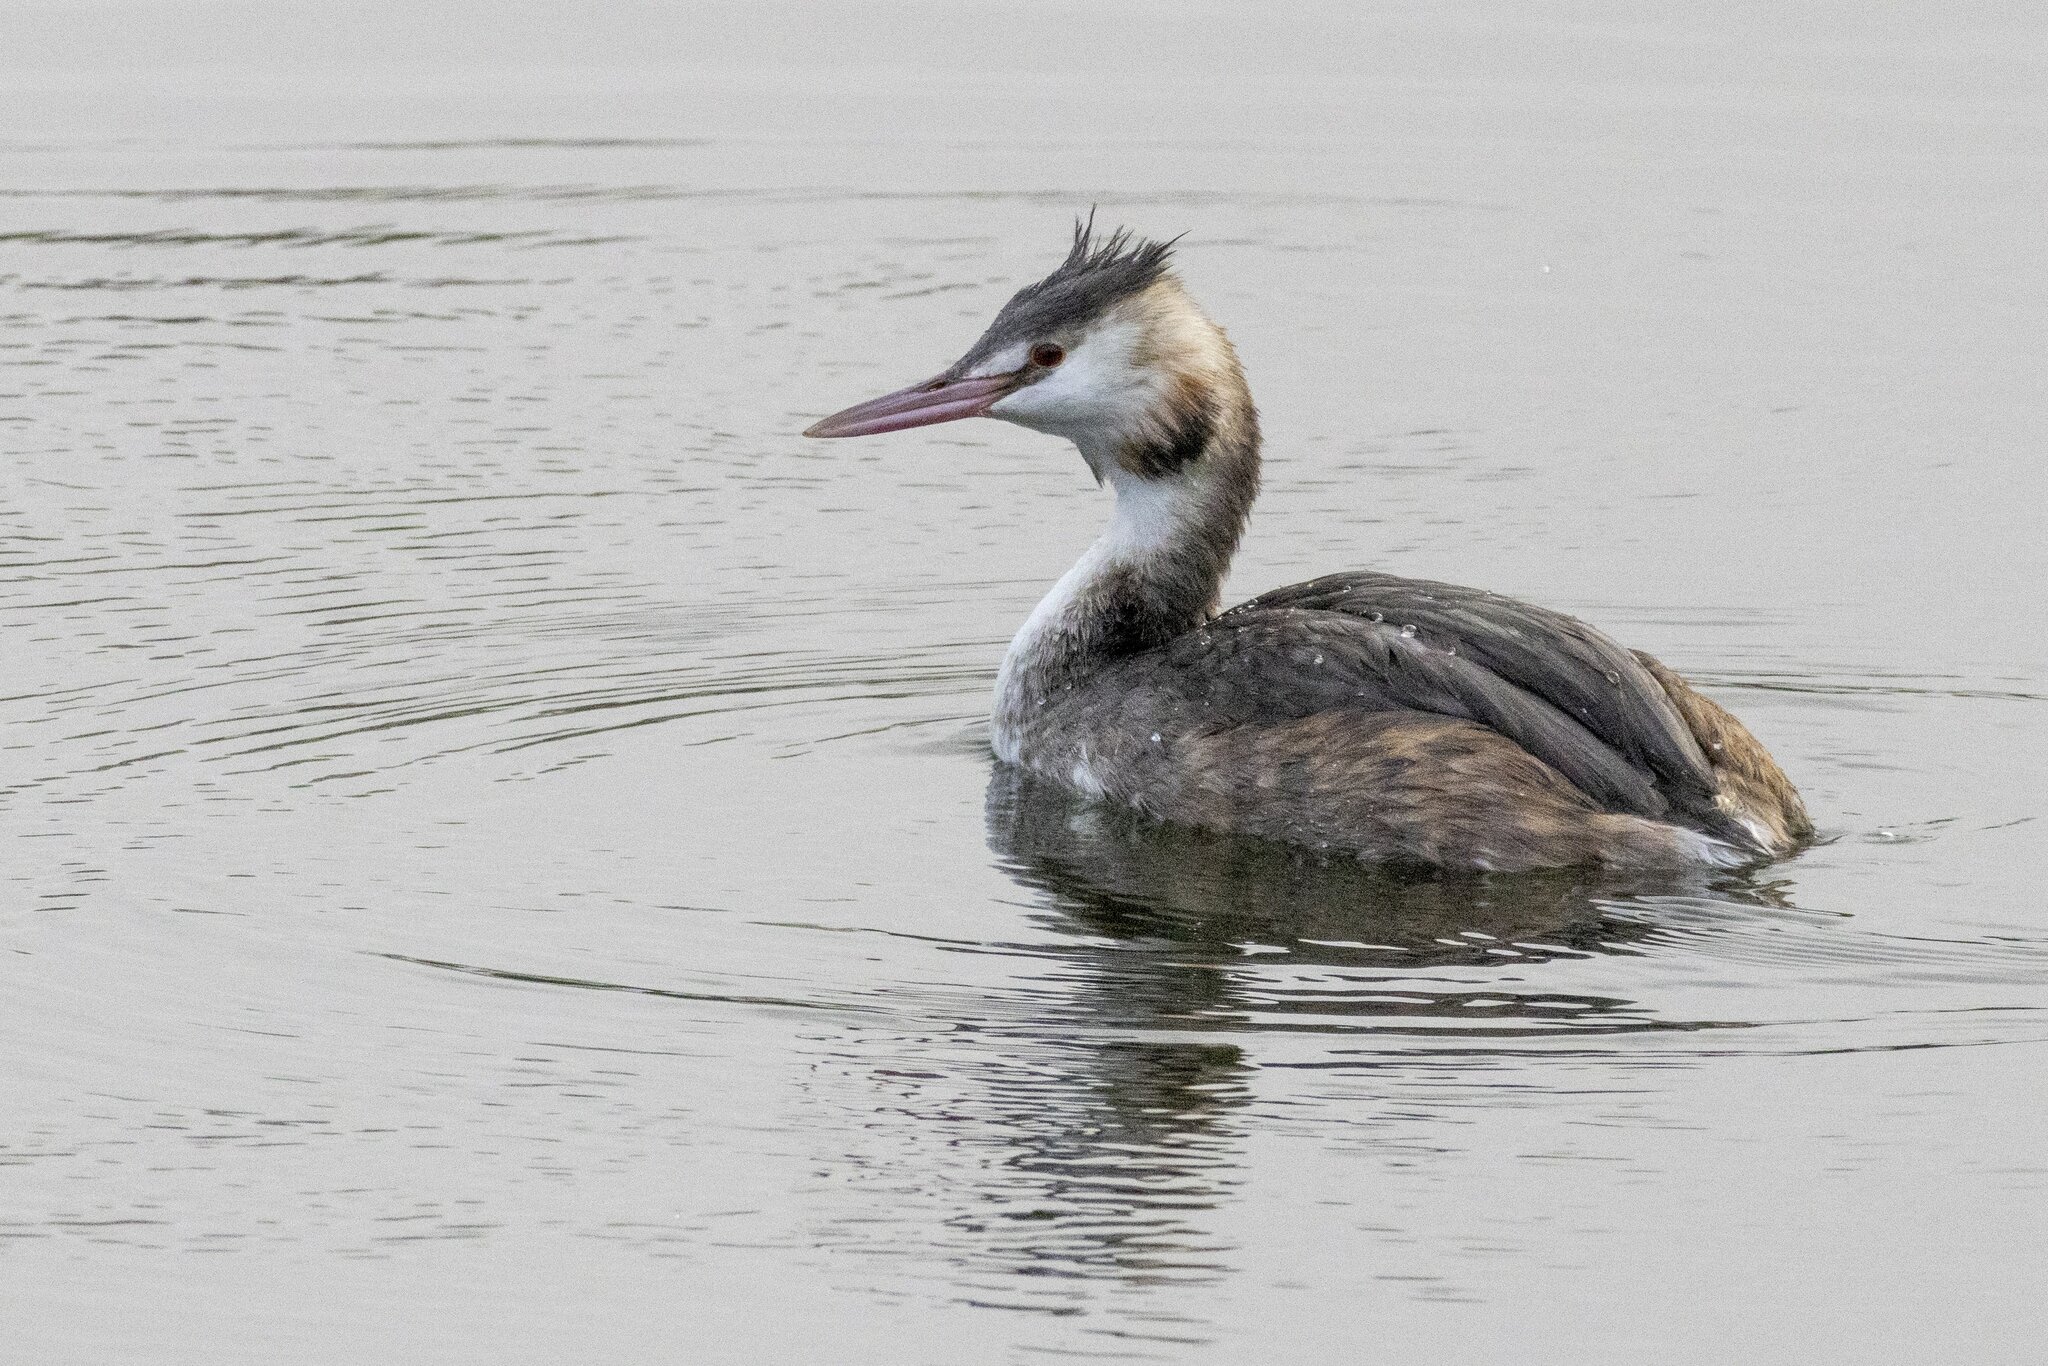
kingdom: Animalia
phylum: Chordata
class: Aves
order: Podicipediformes
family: Podicipedidae
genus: Podiceps
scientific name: Podiceps cristatus
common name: Great crested grebe
